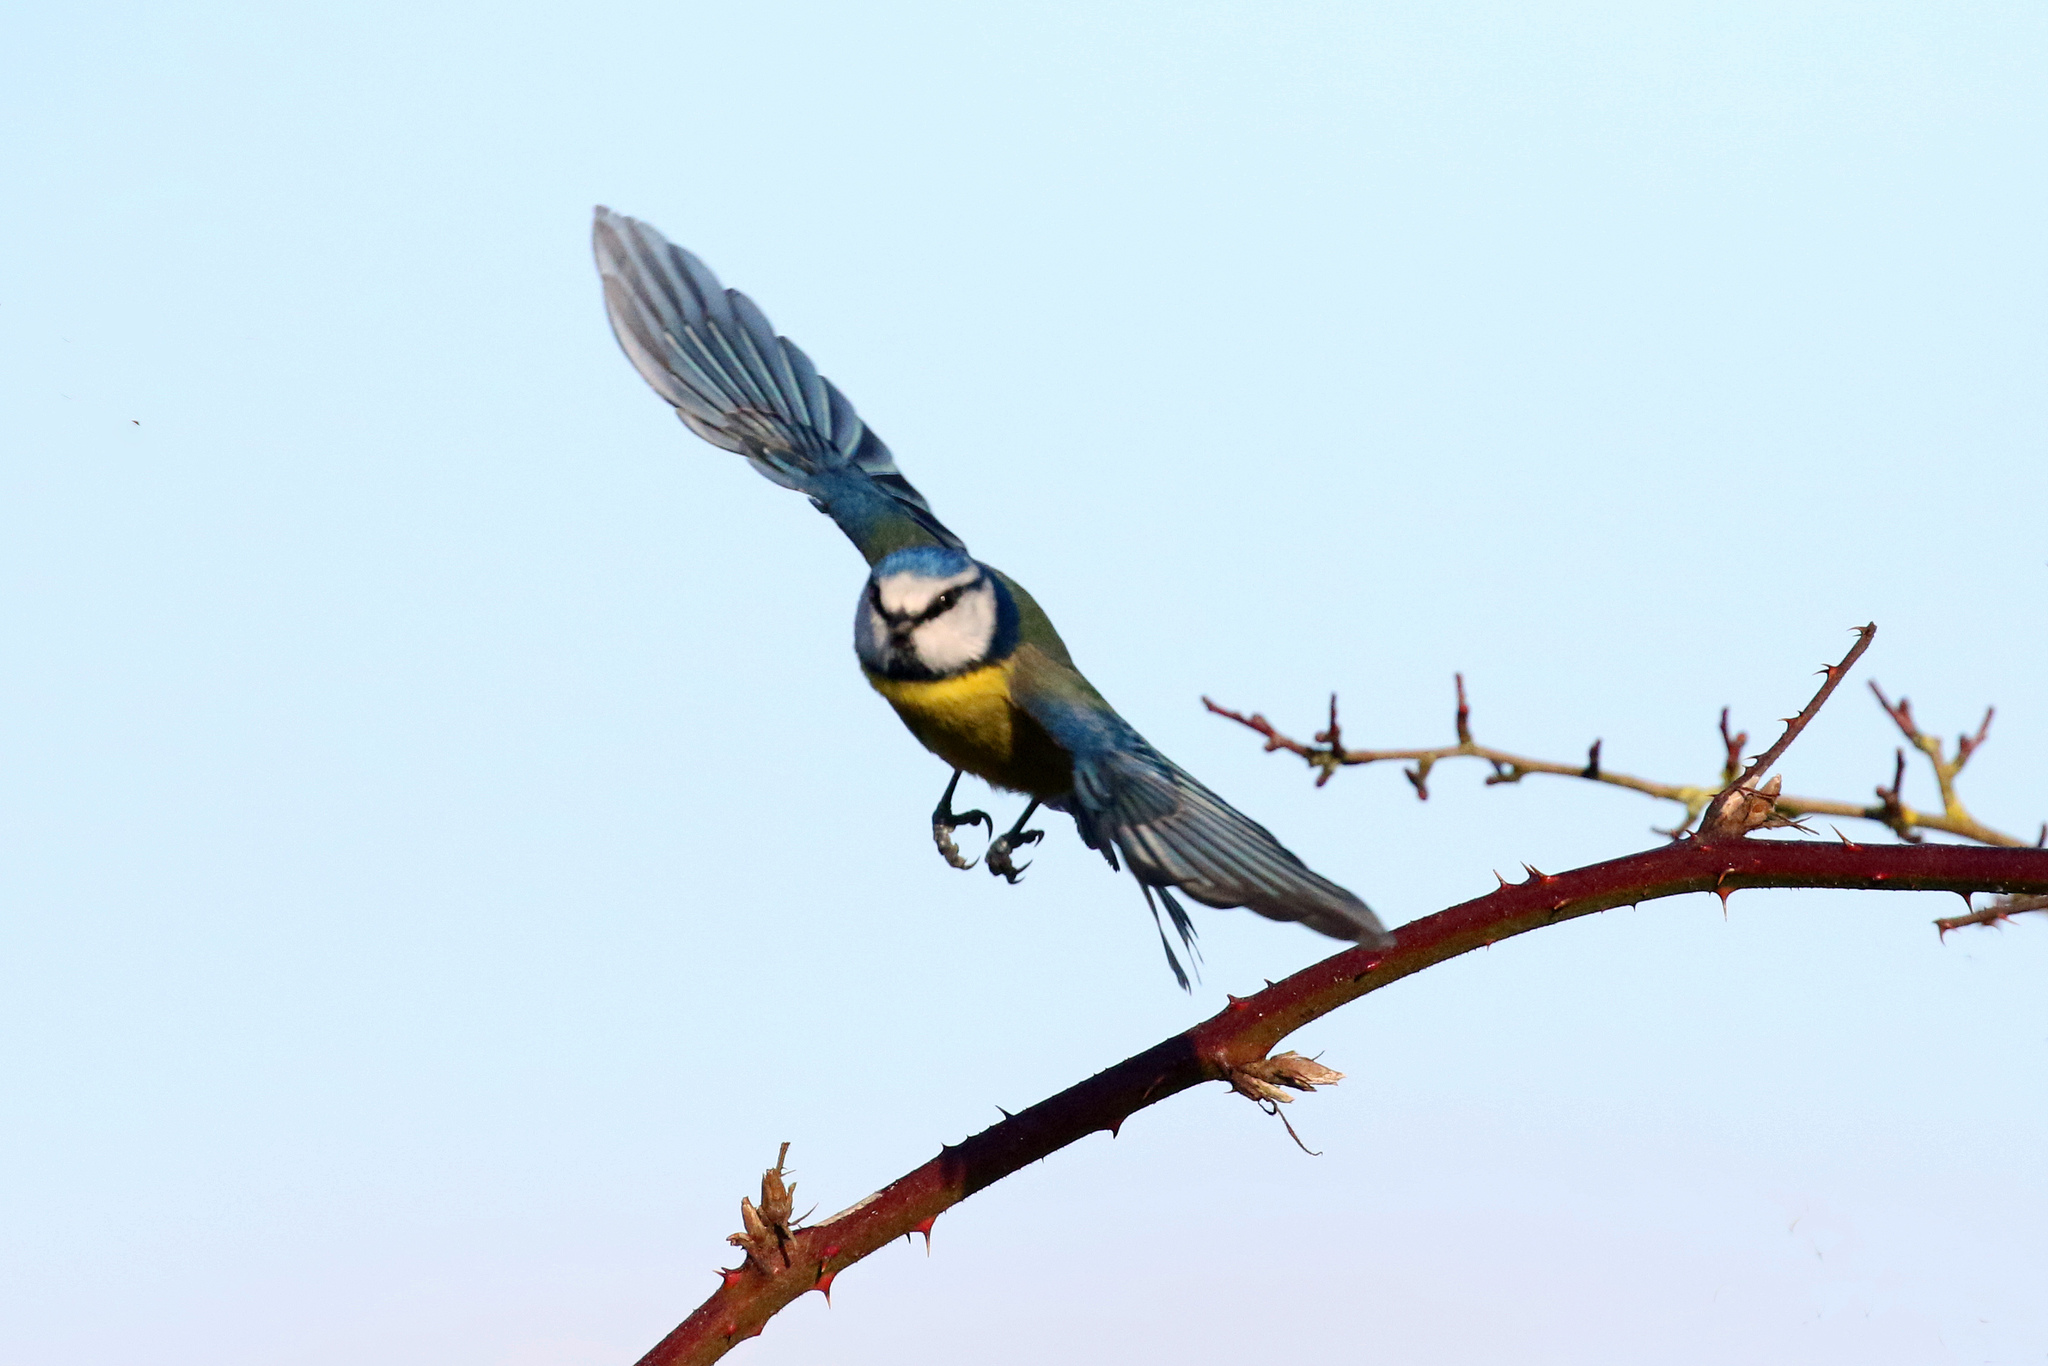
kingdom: Animalia
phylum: Chordata
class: Aves
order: Passeriformes
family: Paridae
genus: Cyanistes
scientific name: Cyanistes caeruleus
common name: Eurasian blue tit
